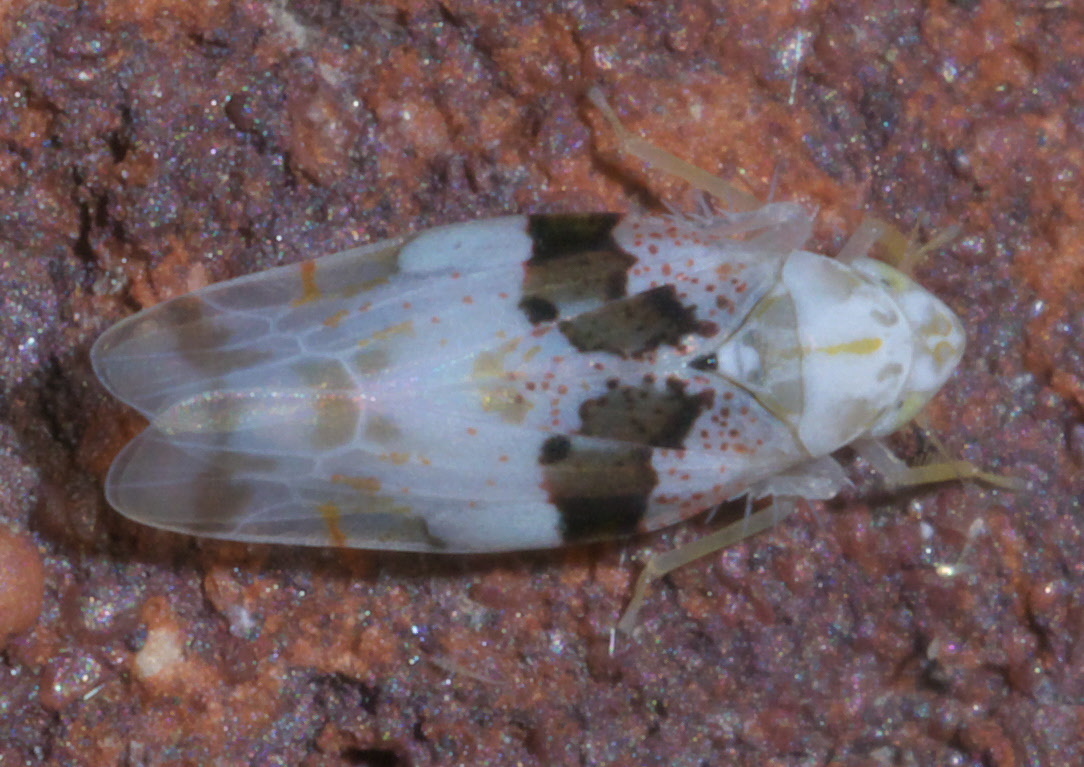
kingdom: Animalia
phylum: Arthropoda
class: Insecta
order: Hemiptera
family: Cicadellidae
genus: Hymetta
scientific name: Hymetta anthisma
